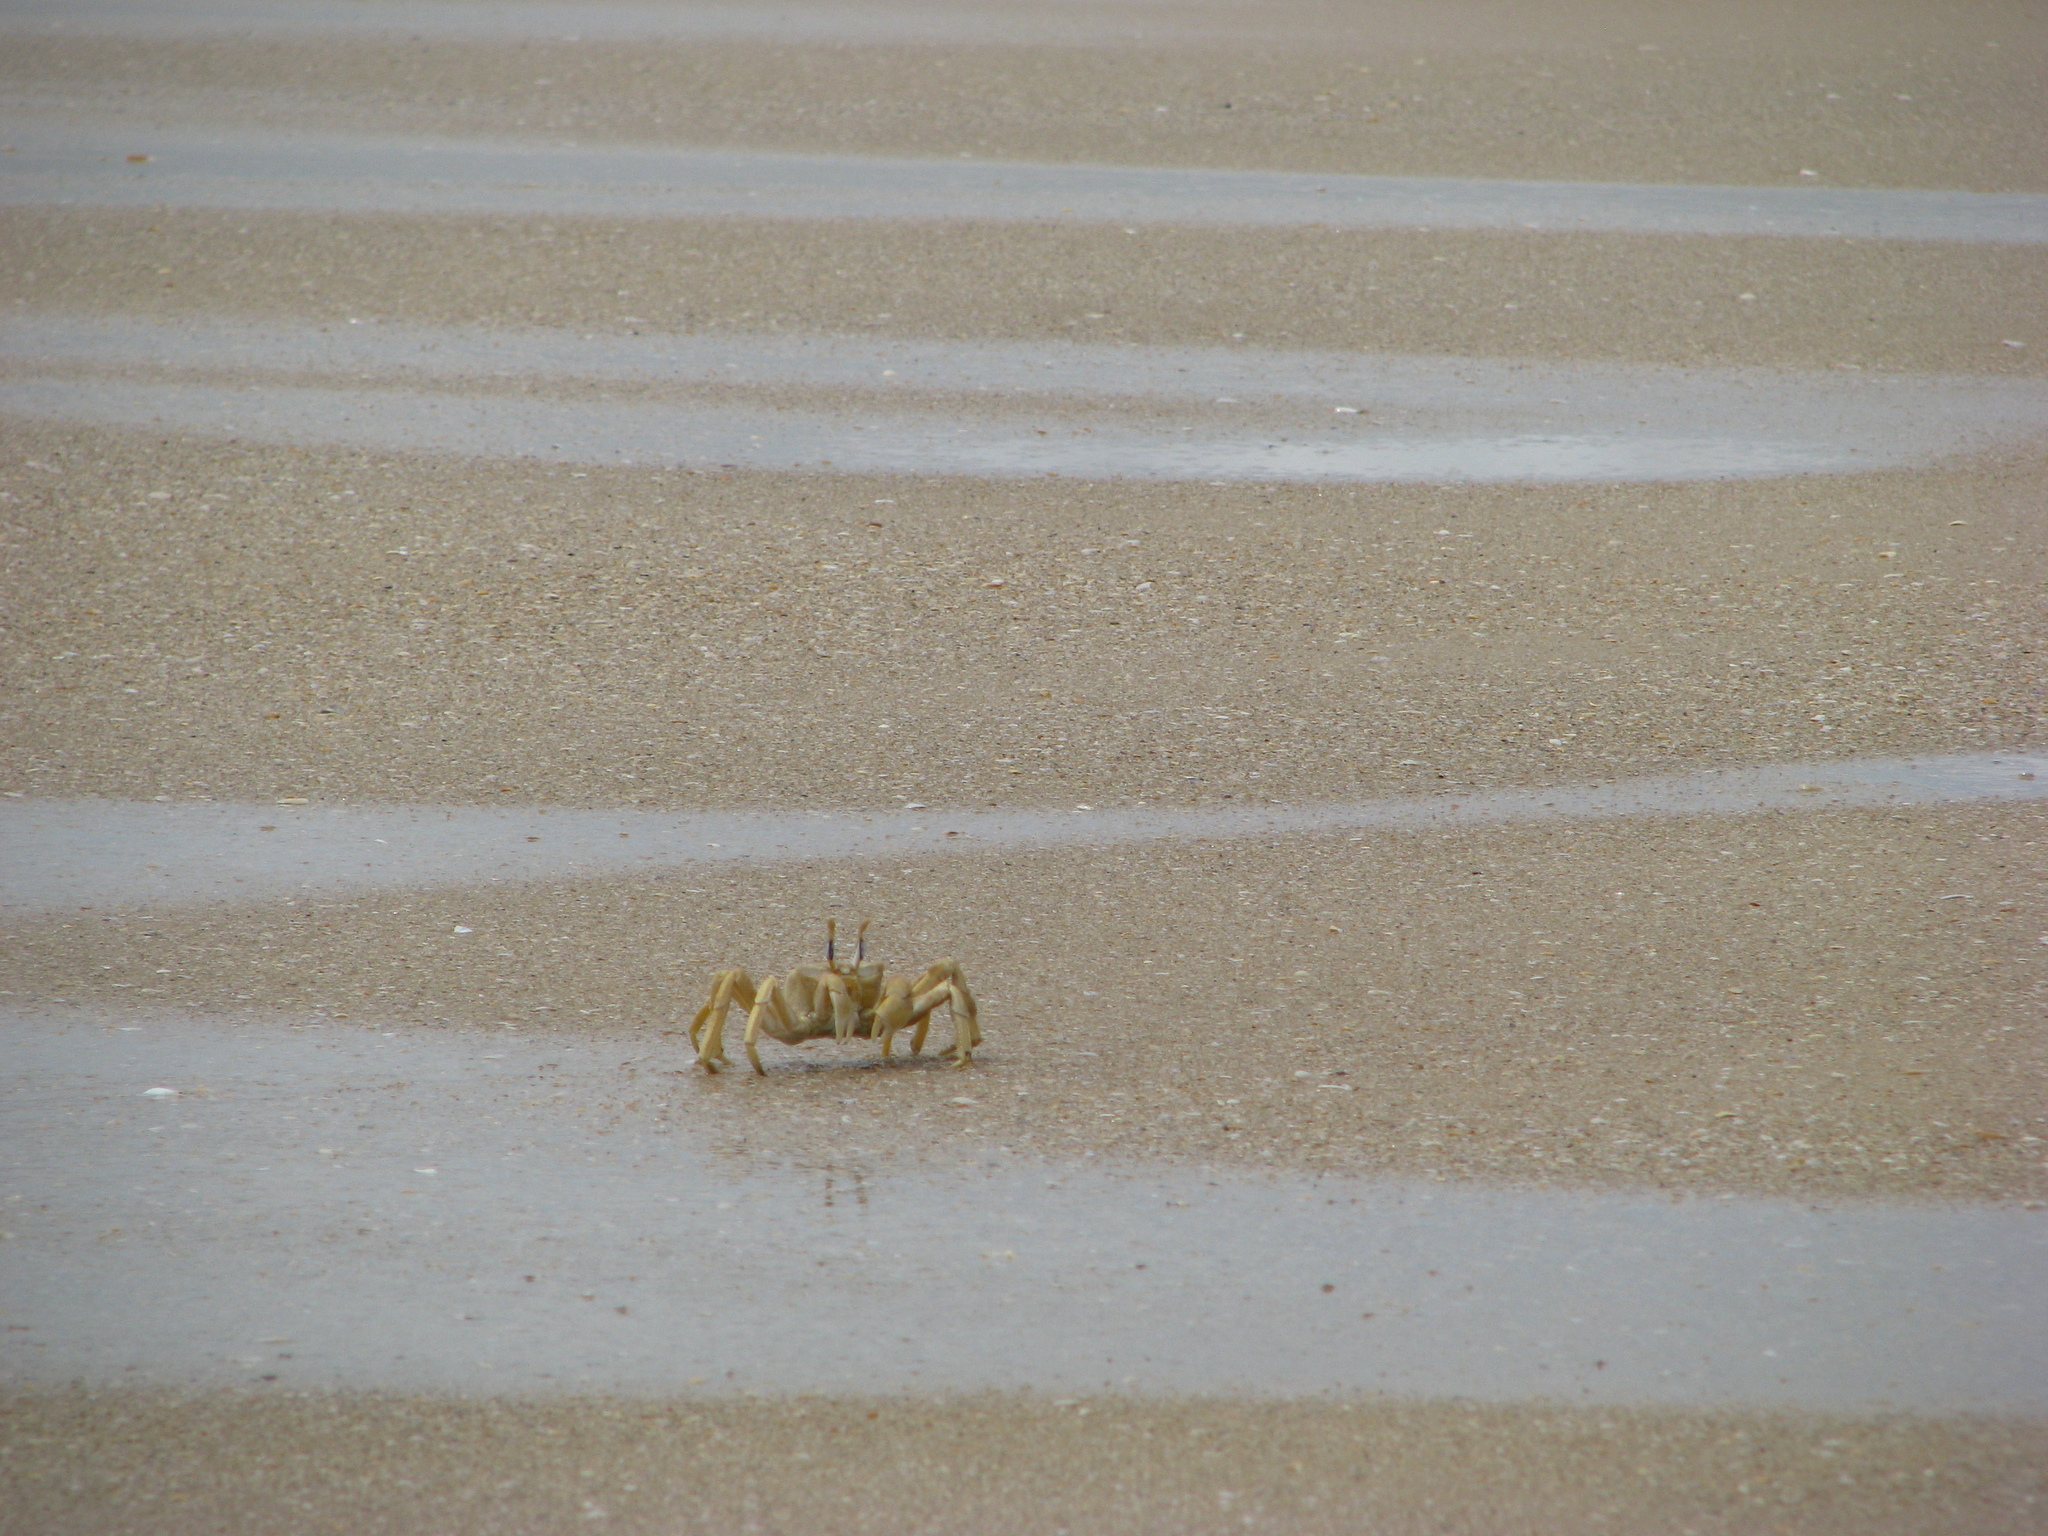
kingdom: Animalia
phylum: Arthropoda
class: Malacostraca
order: Decapoda
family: Ocypodidae
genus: Ocypode
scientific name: Ocypode cursor
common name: Tufted ghost crab
